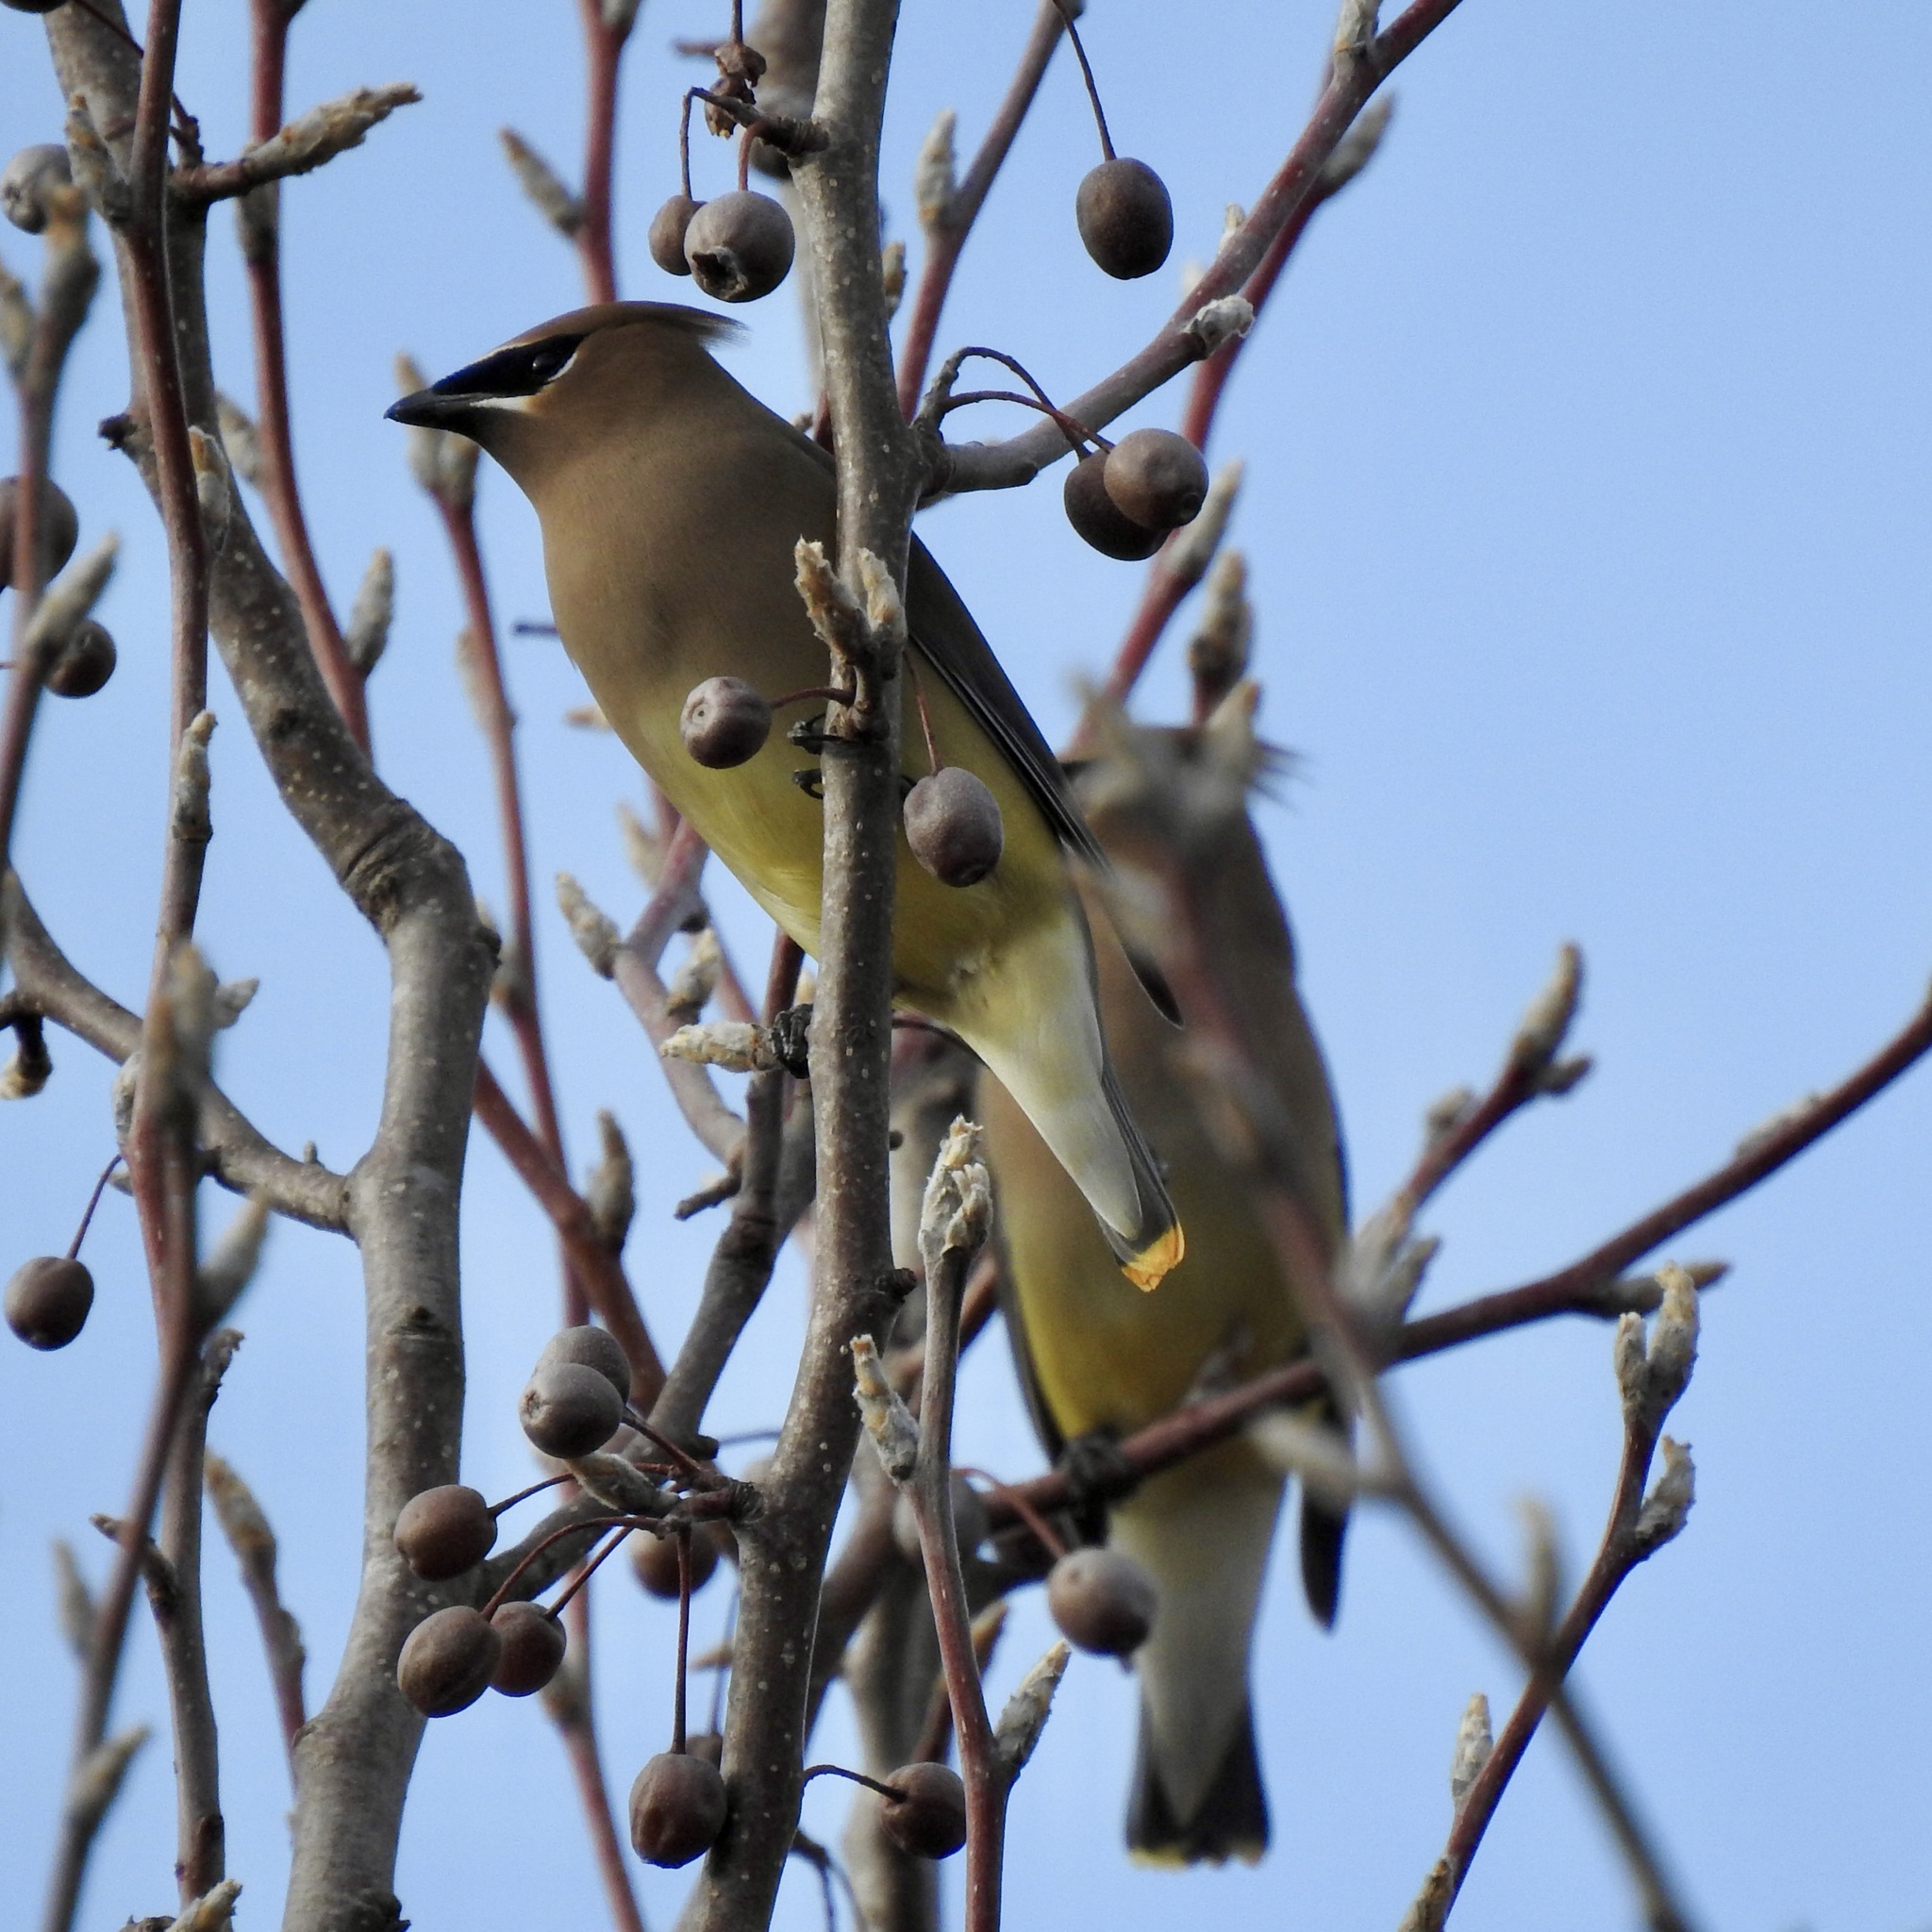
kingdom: Animalia
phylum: Chordata
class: Aves
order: Passeriformes
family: Bombycillidae
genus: Bombycilla
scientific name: Bombycilla cedrorum
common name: Cedar waxwing
